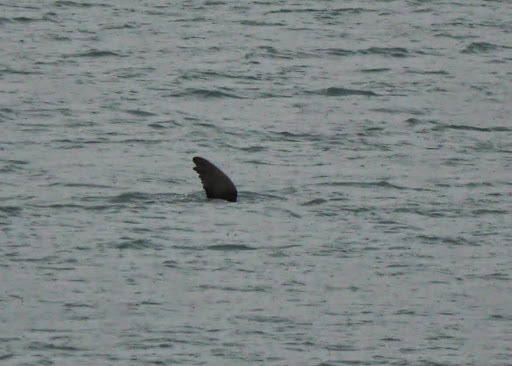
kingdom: Animalia
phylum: Chordata
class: Mammalia
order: Carnivora
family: Otariidae
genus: Eumetopias
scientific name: Eumetopias jubatus
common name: Steller sea lion
